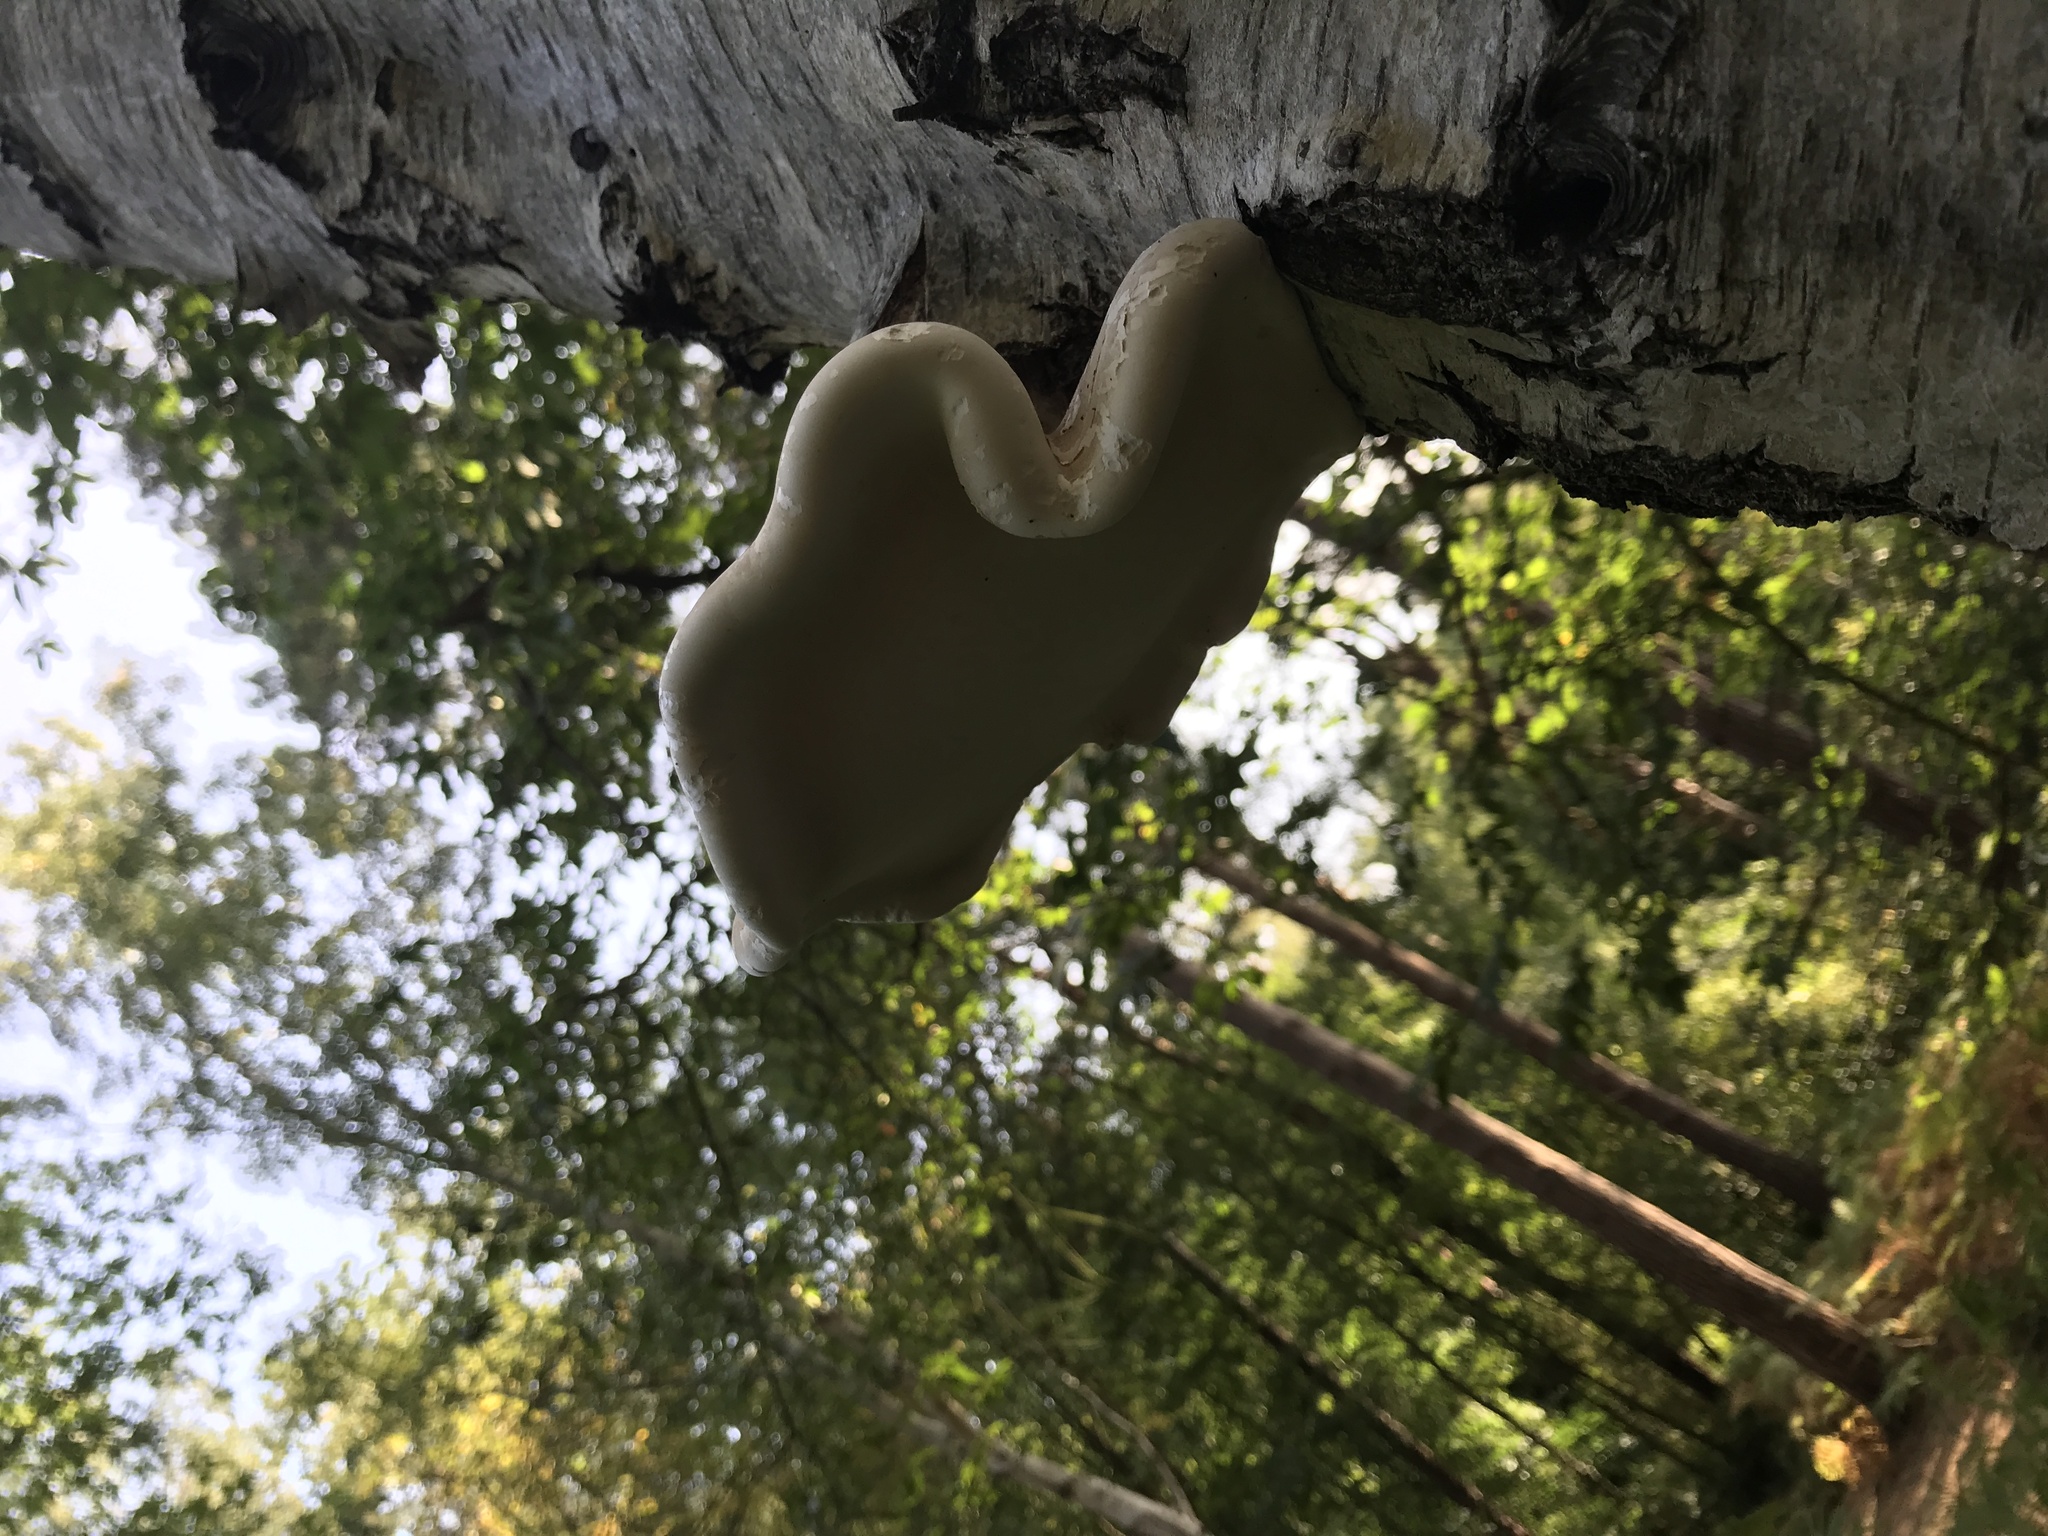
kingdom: Fungi
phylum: Basidiomycota
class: Agaricomycetes
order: Polyporales
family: Fomitopsidaceae
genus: Fomitopsis
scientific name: Fomitopsis betulina
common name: Birch polypore
